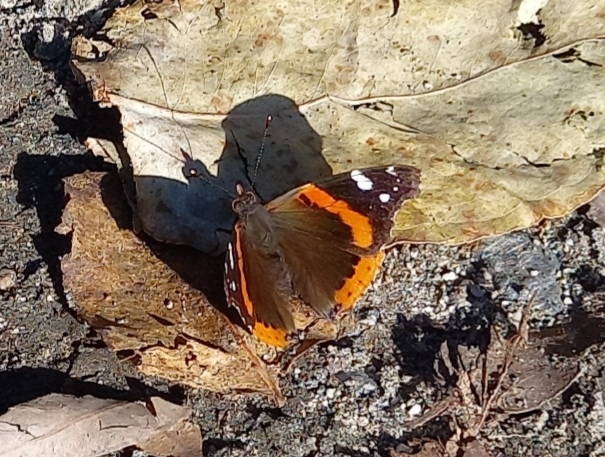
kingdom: Animalia
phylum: Arthropoda
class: Insecta
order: Lepidoptera
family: Nymphalidae
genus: Vanessa
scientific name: Vanessa atalanta
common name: Red admiral
